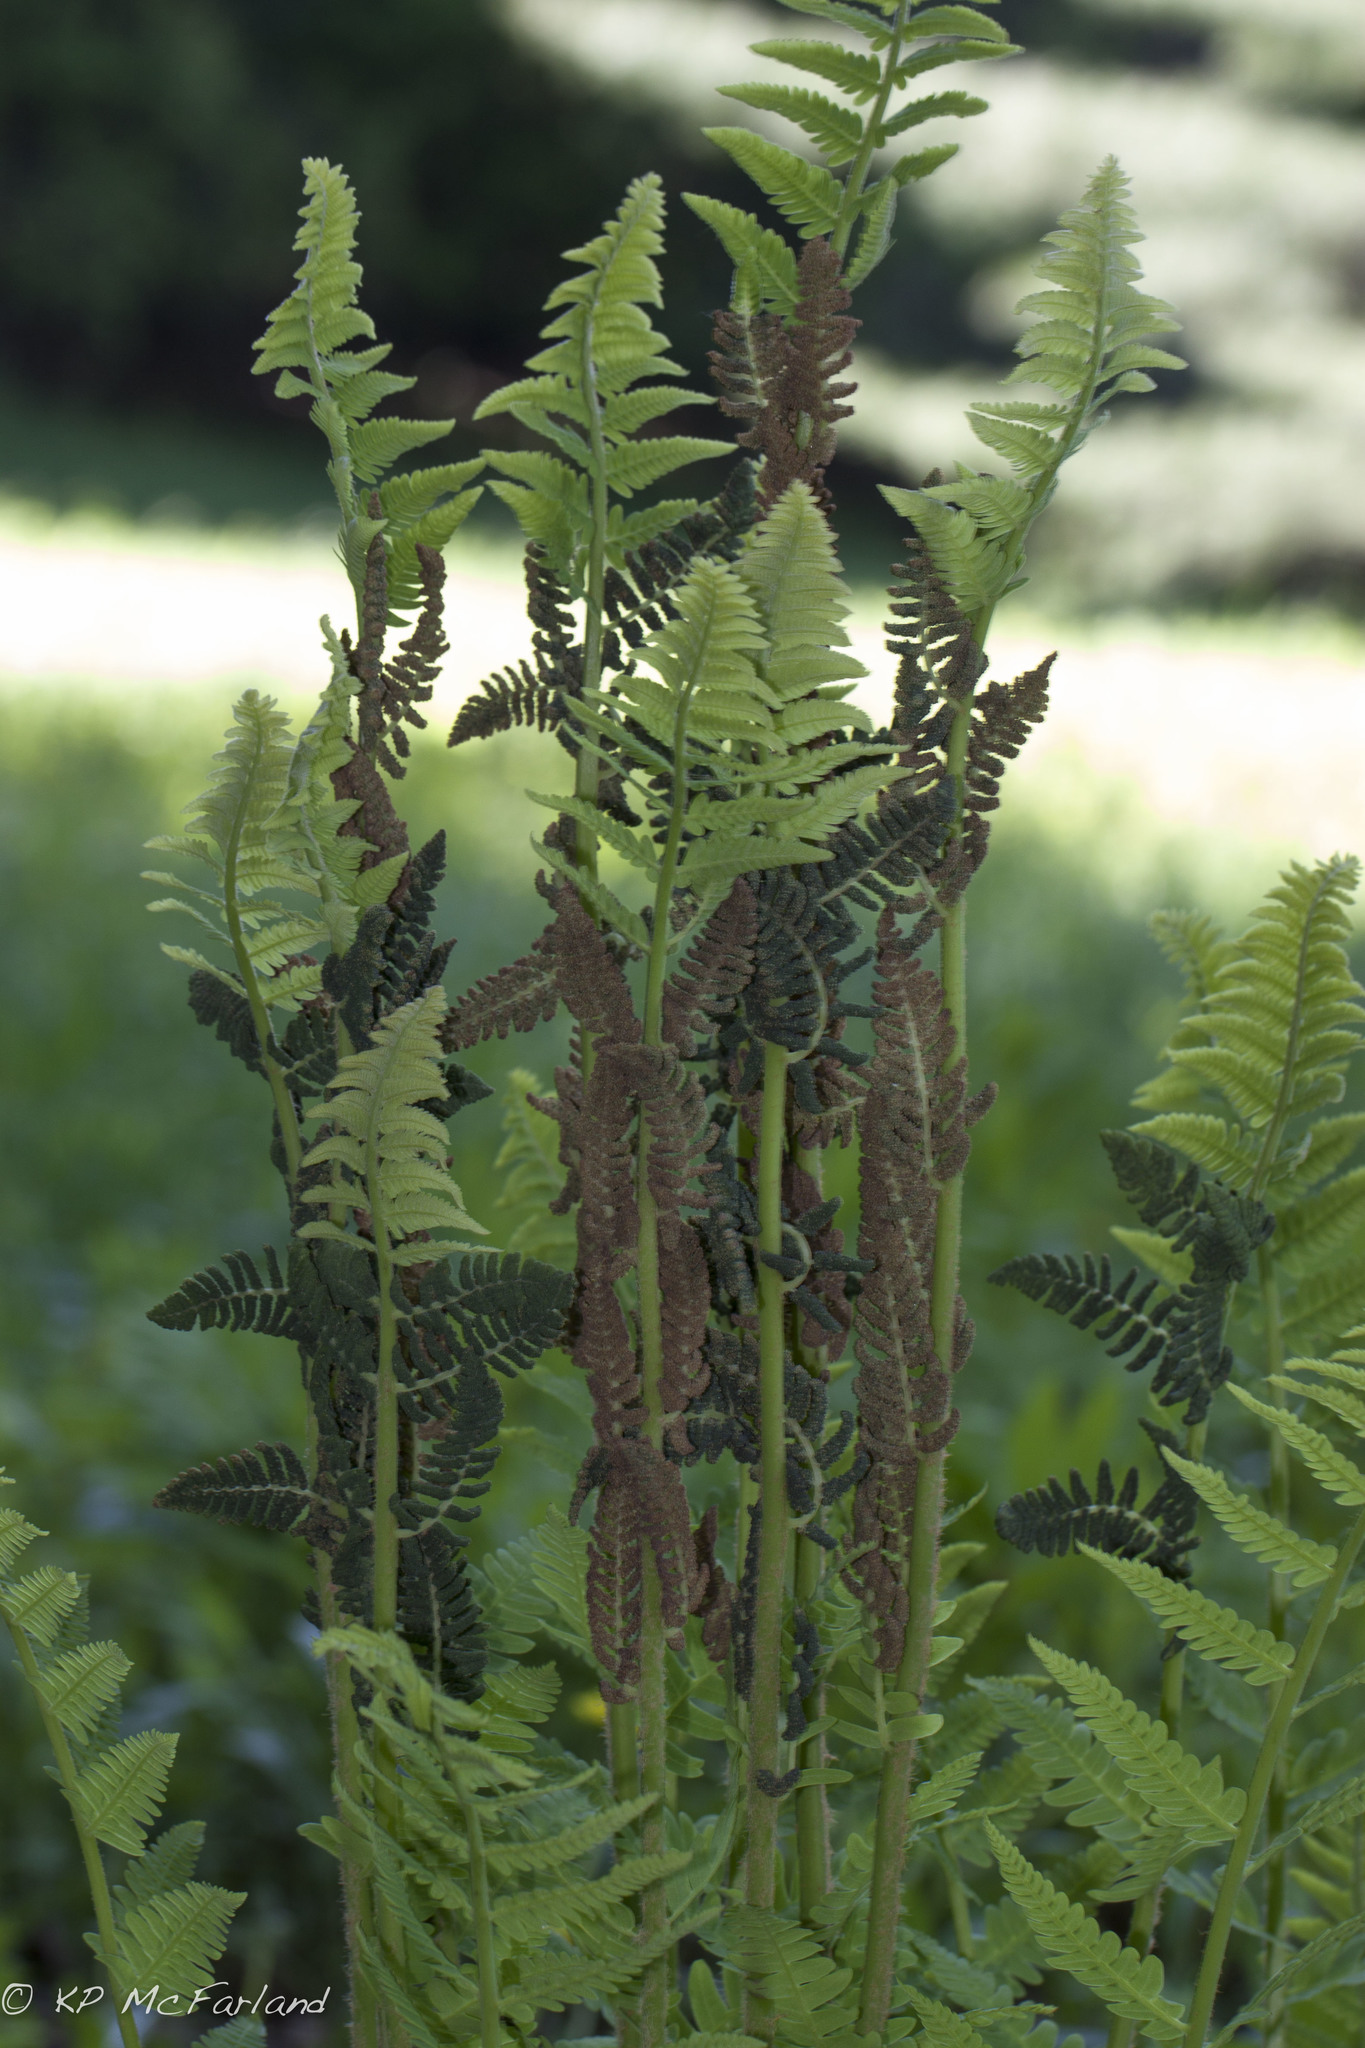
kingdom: Plantae
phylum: Tracheophyta
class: Polypodiopsida
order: Osmundales
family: Osmundaceae
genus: Claytosmunda
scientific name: Claytosmunda claytoniana
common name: Clayton's fern
